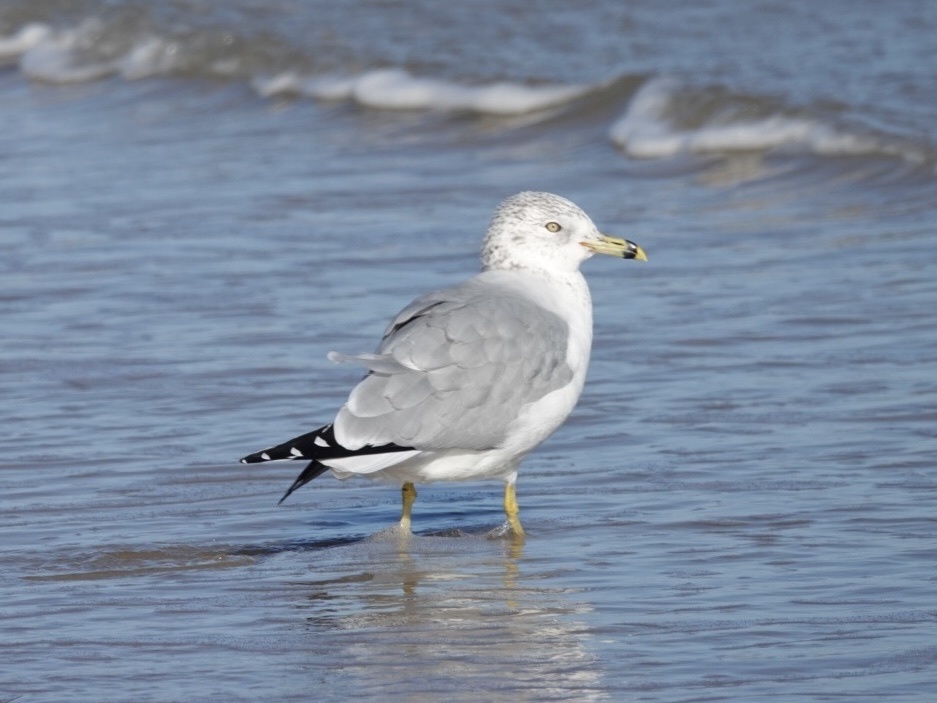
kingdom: Animalia
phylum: Chordata
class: Aves
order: Charadriiformes
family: Laridae
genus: Larus
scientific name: Larus delawarensis
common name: Ring-billed gull
